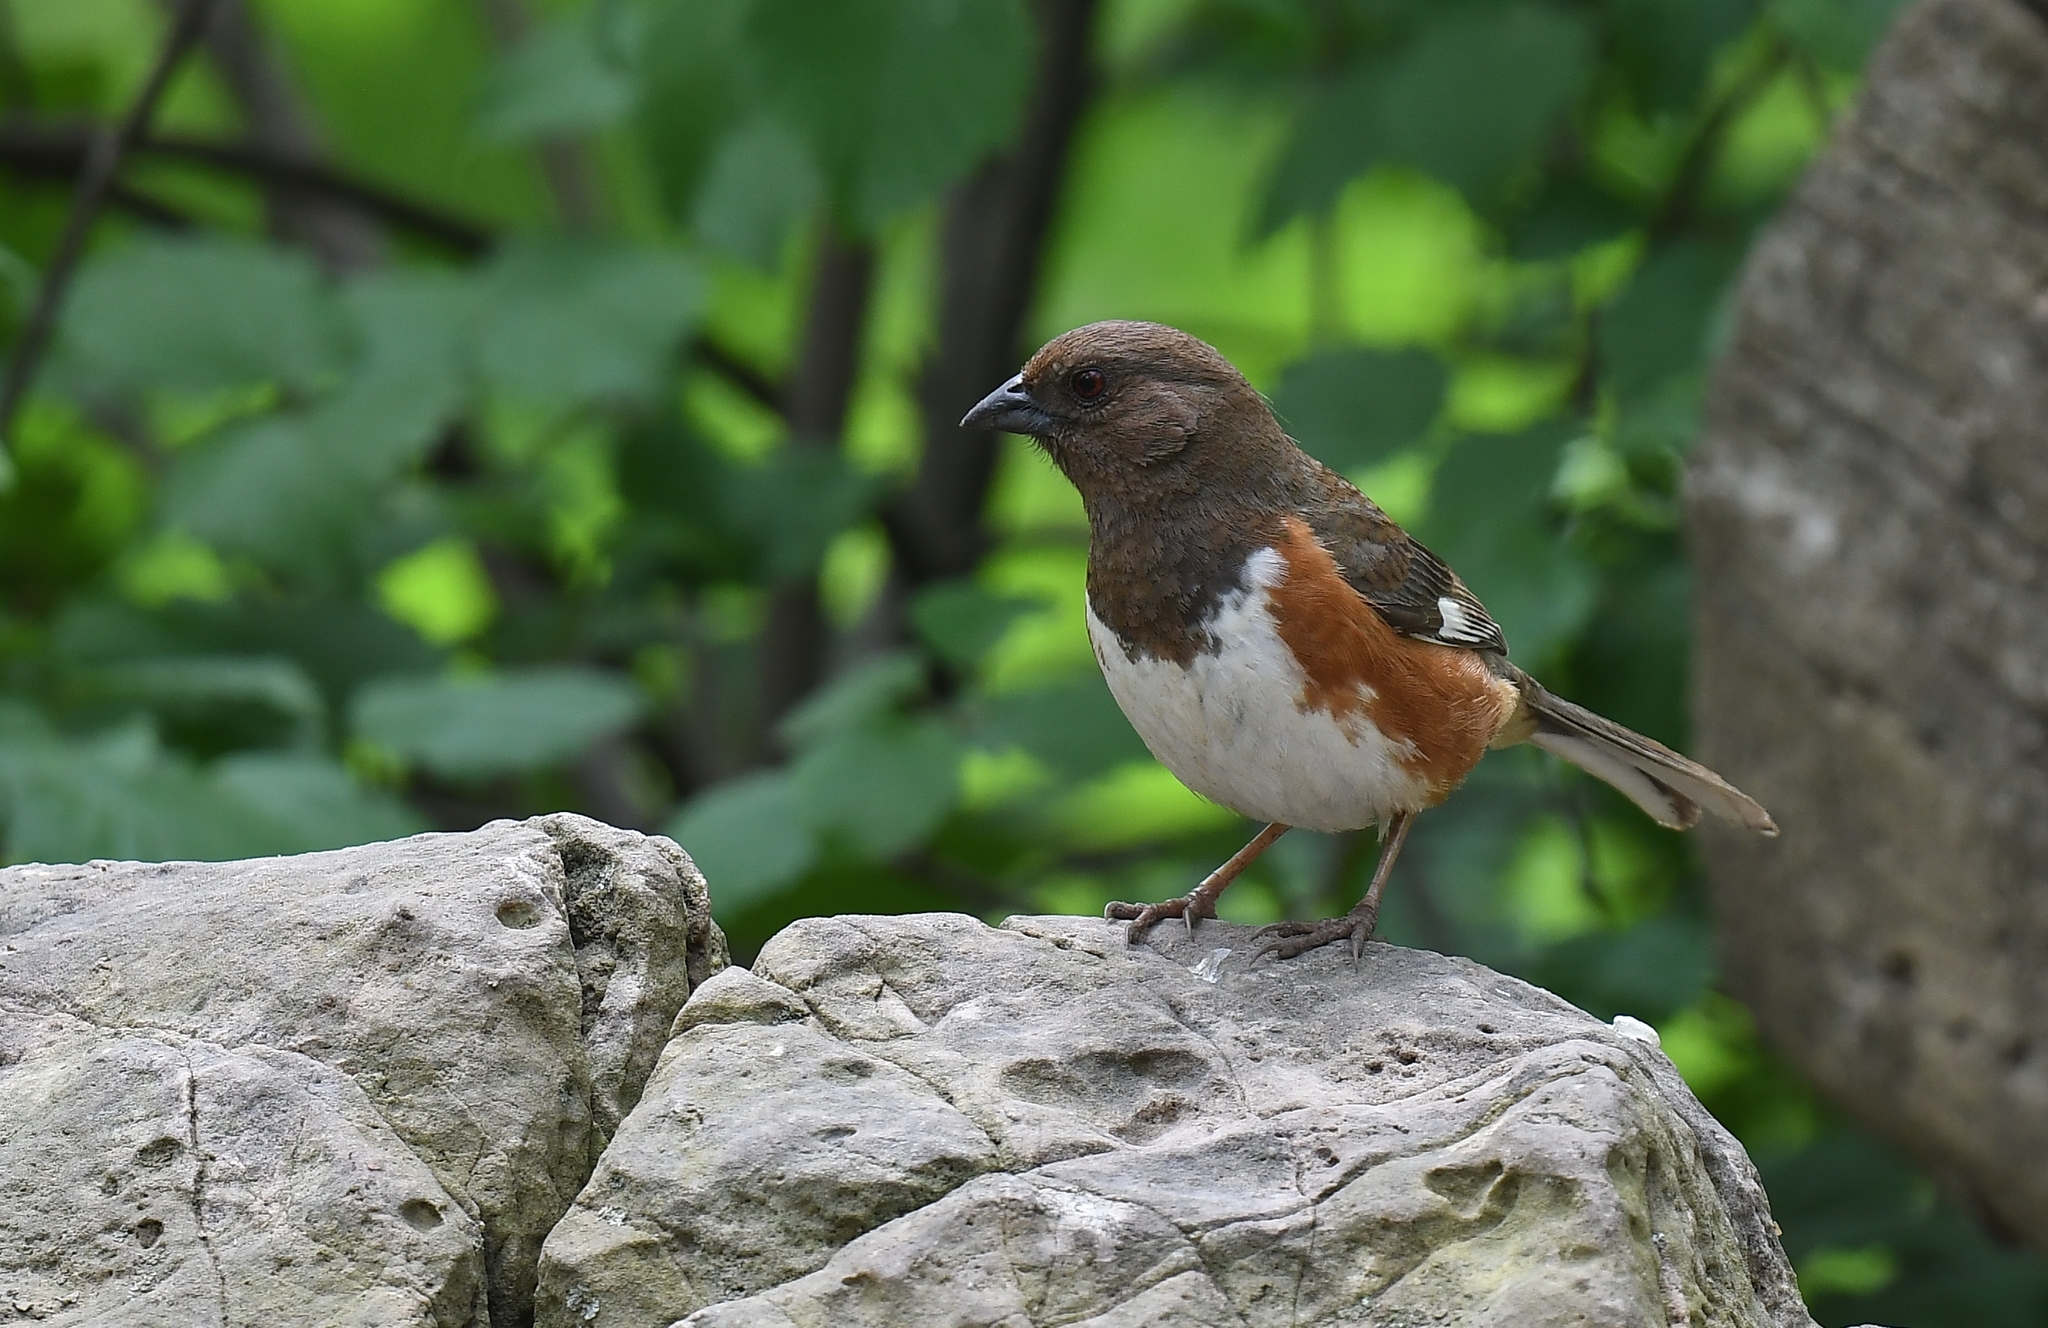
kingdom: Animalia
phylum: Chordata
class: Aves
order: Passeriformes
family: Passerellidae
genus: Pipilo
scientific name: Pipilo erythrophthalmus
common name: Eastern towhee
